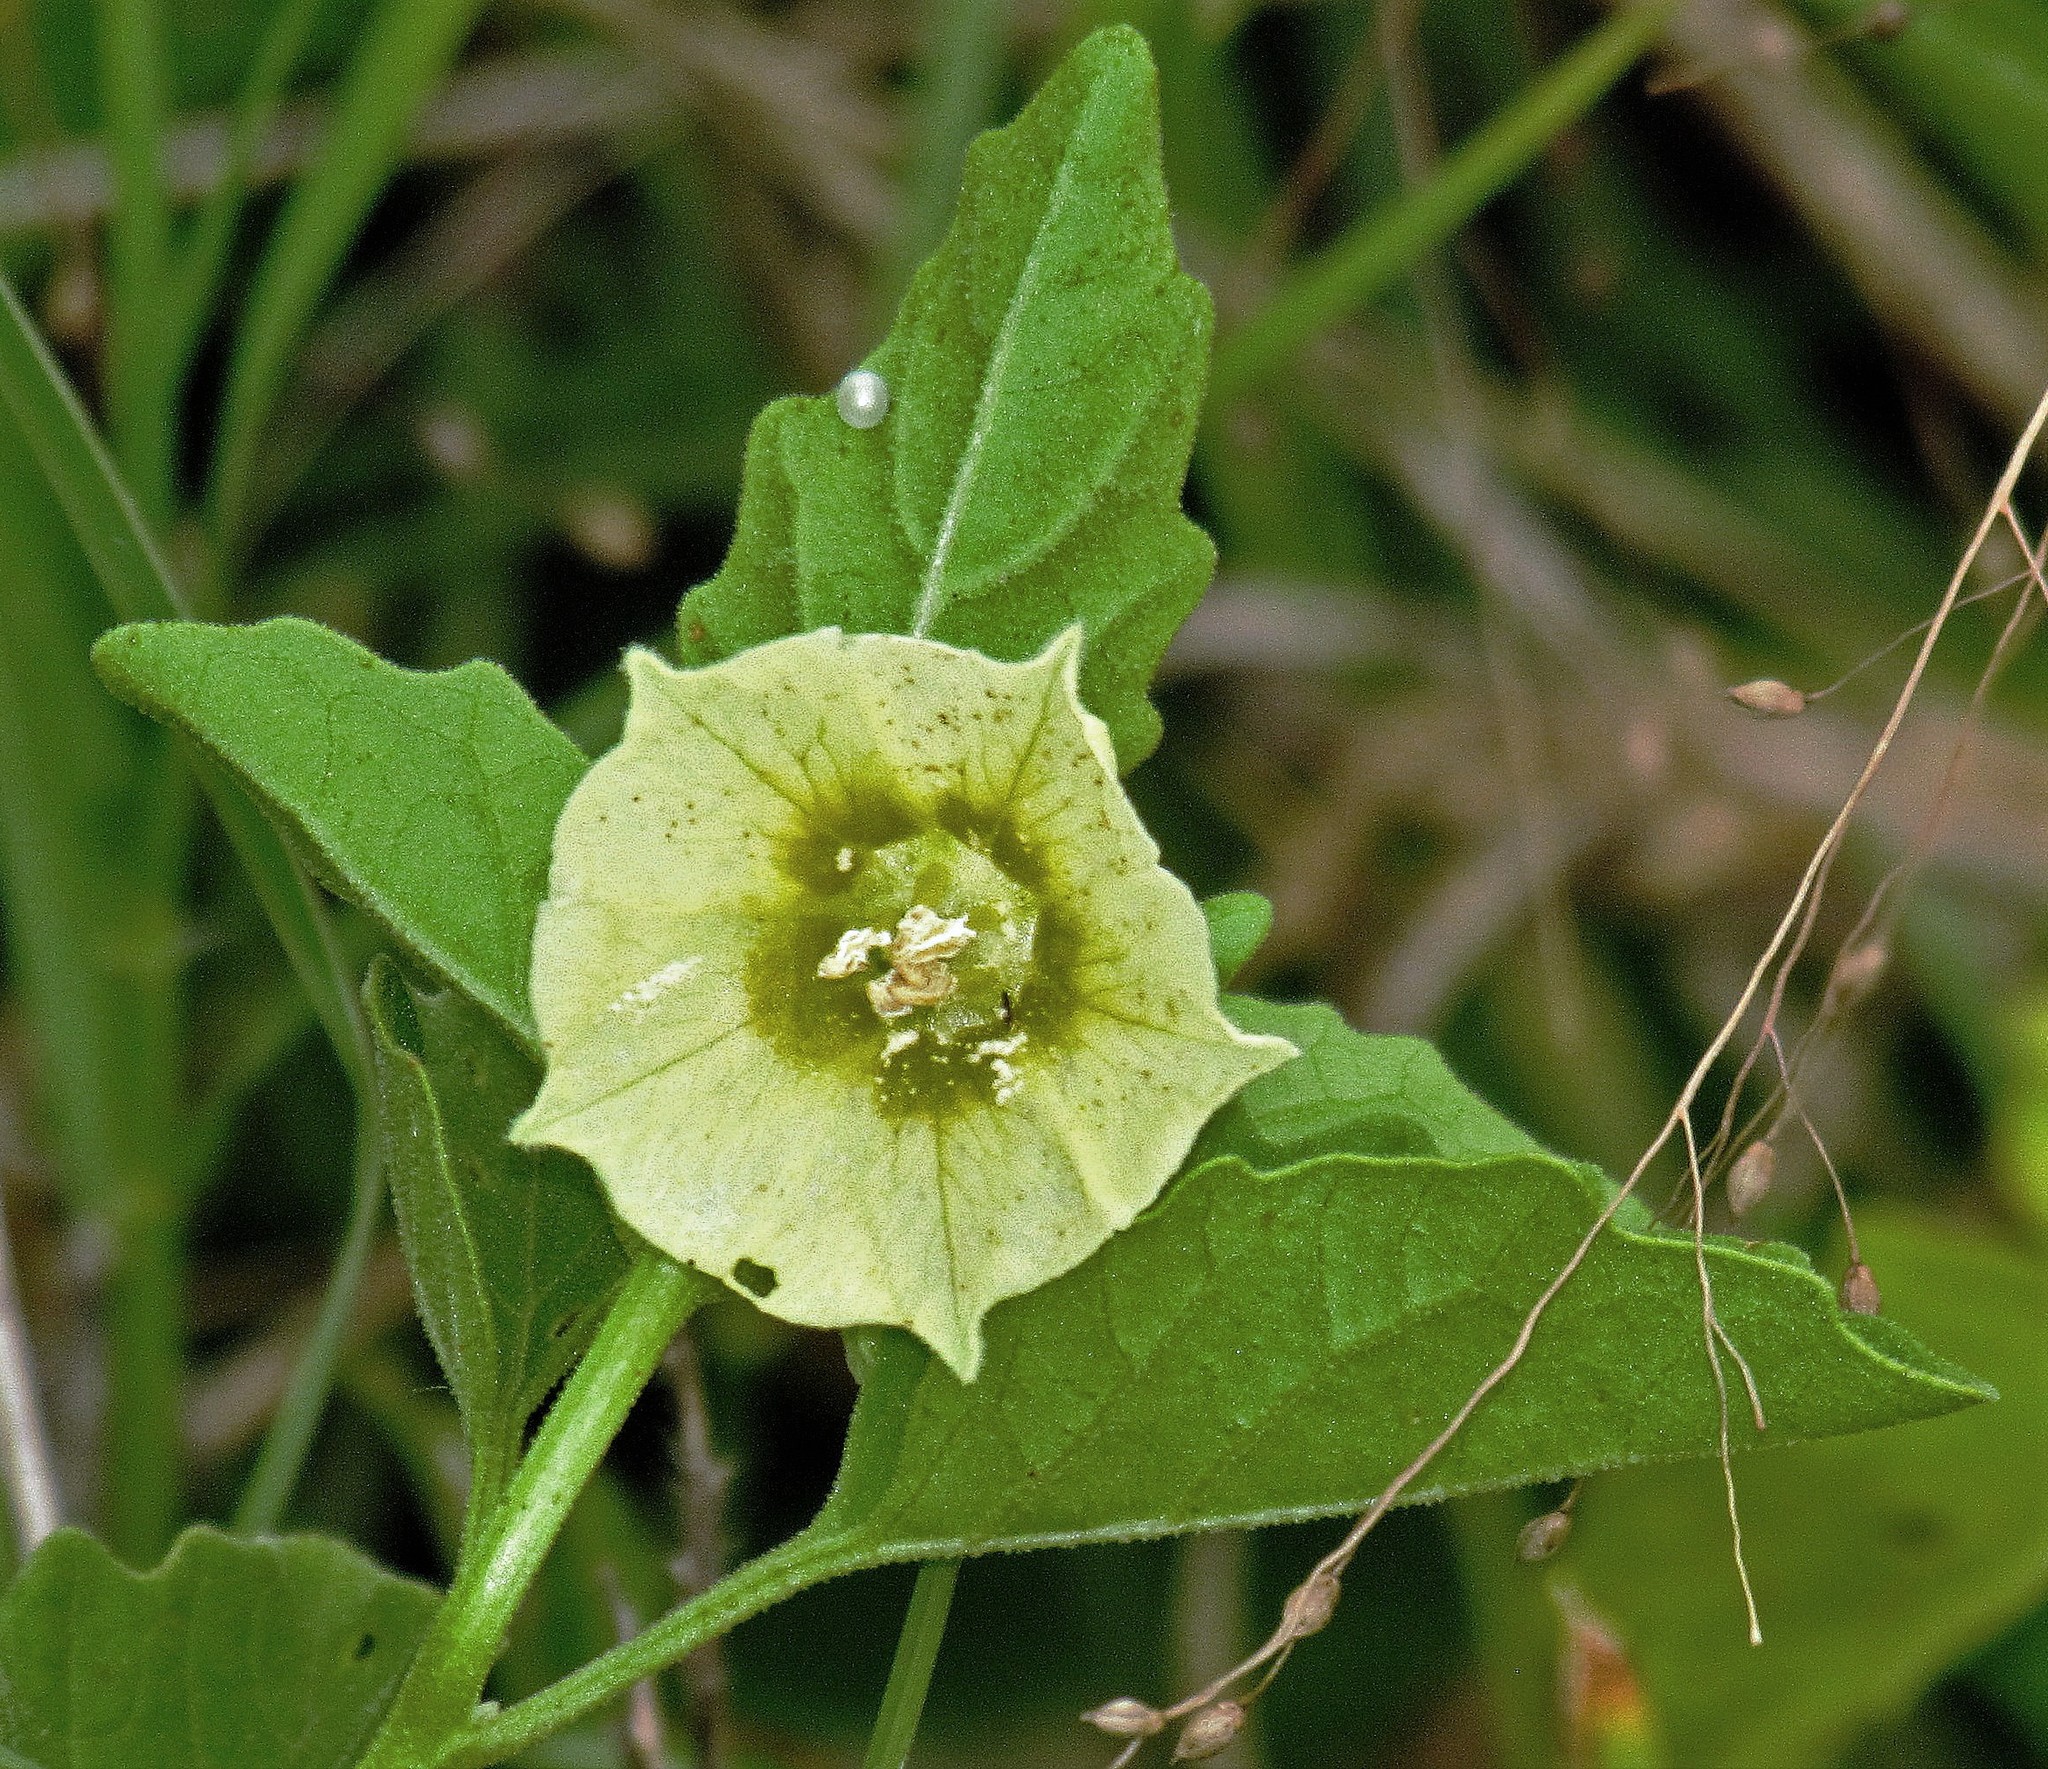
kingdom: Plantae
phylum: Tracheophyta
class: Magnoliopsida
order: Solanales
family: Solanaceae
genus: Physalis
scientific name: Physalis viscosa
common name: Stellate ground-cherry
